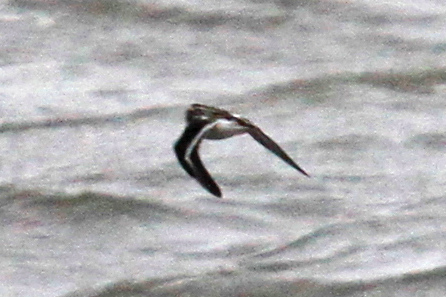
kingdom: Animalia
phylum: Chordata
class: Aves
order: Charadriiformes
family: Scolopacidae
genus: Phalaropus
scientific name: Phalaropus lobatus
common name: Red-necked phalarope
